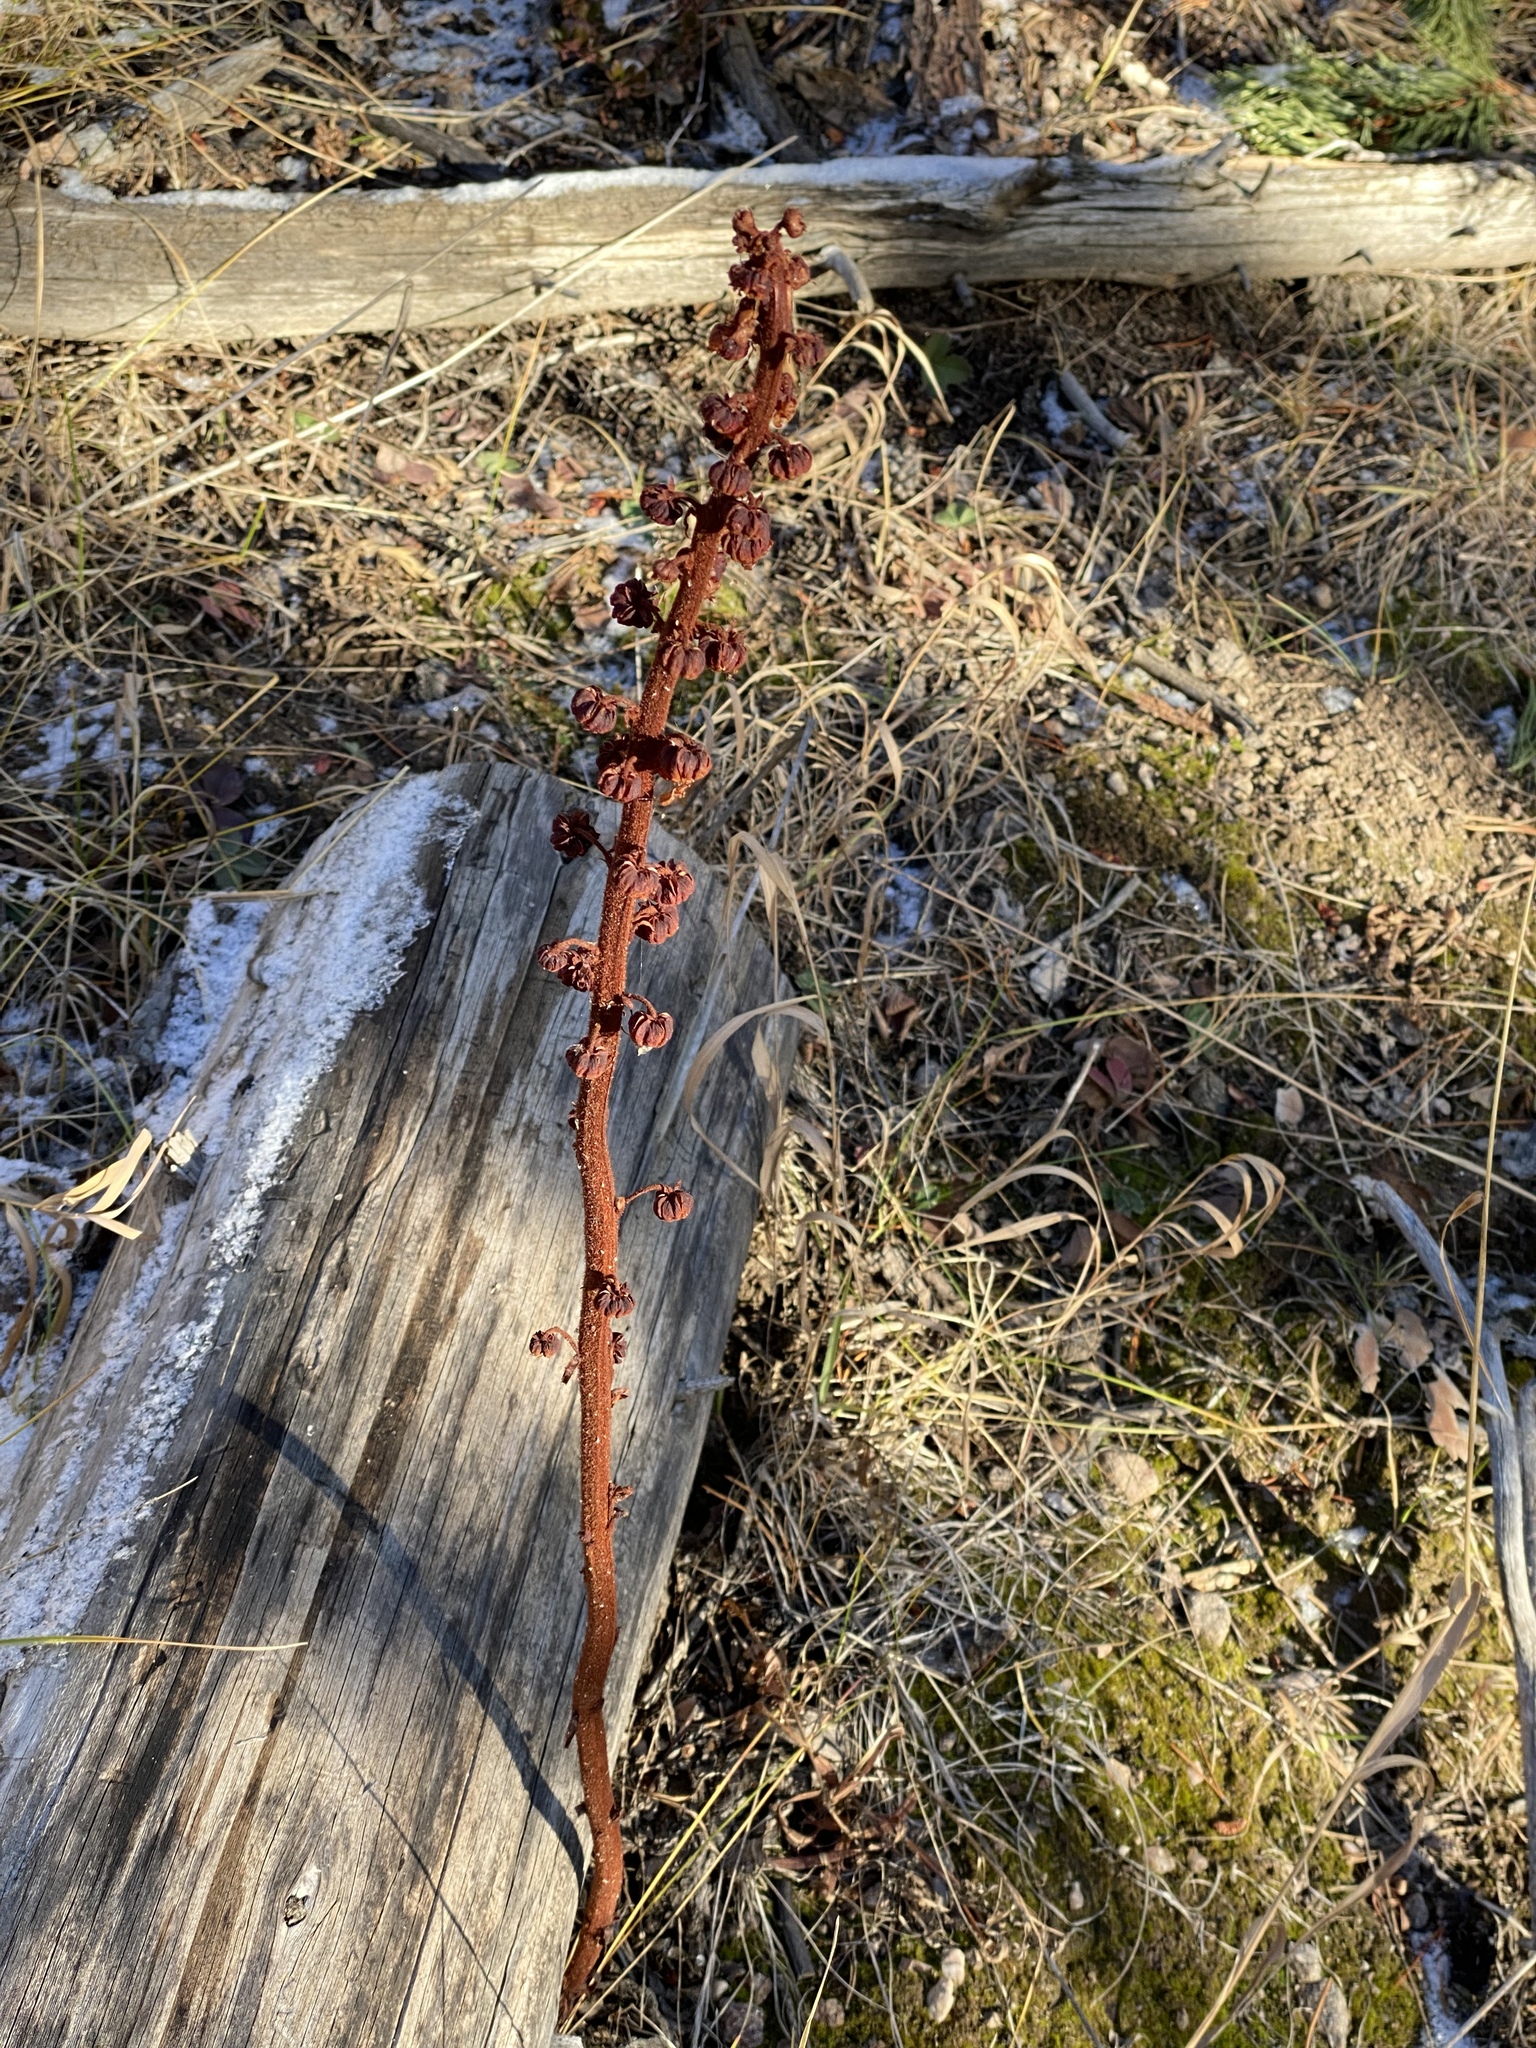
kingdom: Plantae
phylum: Tracheophyta
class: Magnoliopsida
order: Ericales
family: Ericaceae
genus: Pterospora
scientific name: Pterospora andromedea
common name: Giant bird's-nest
